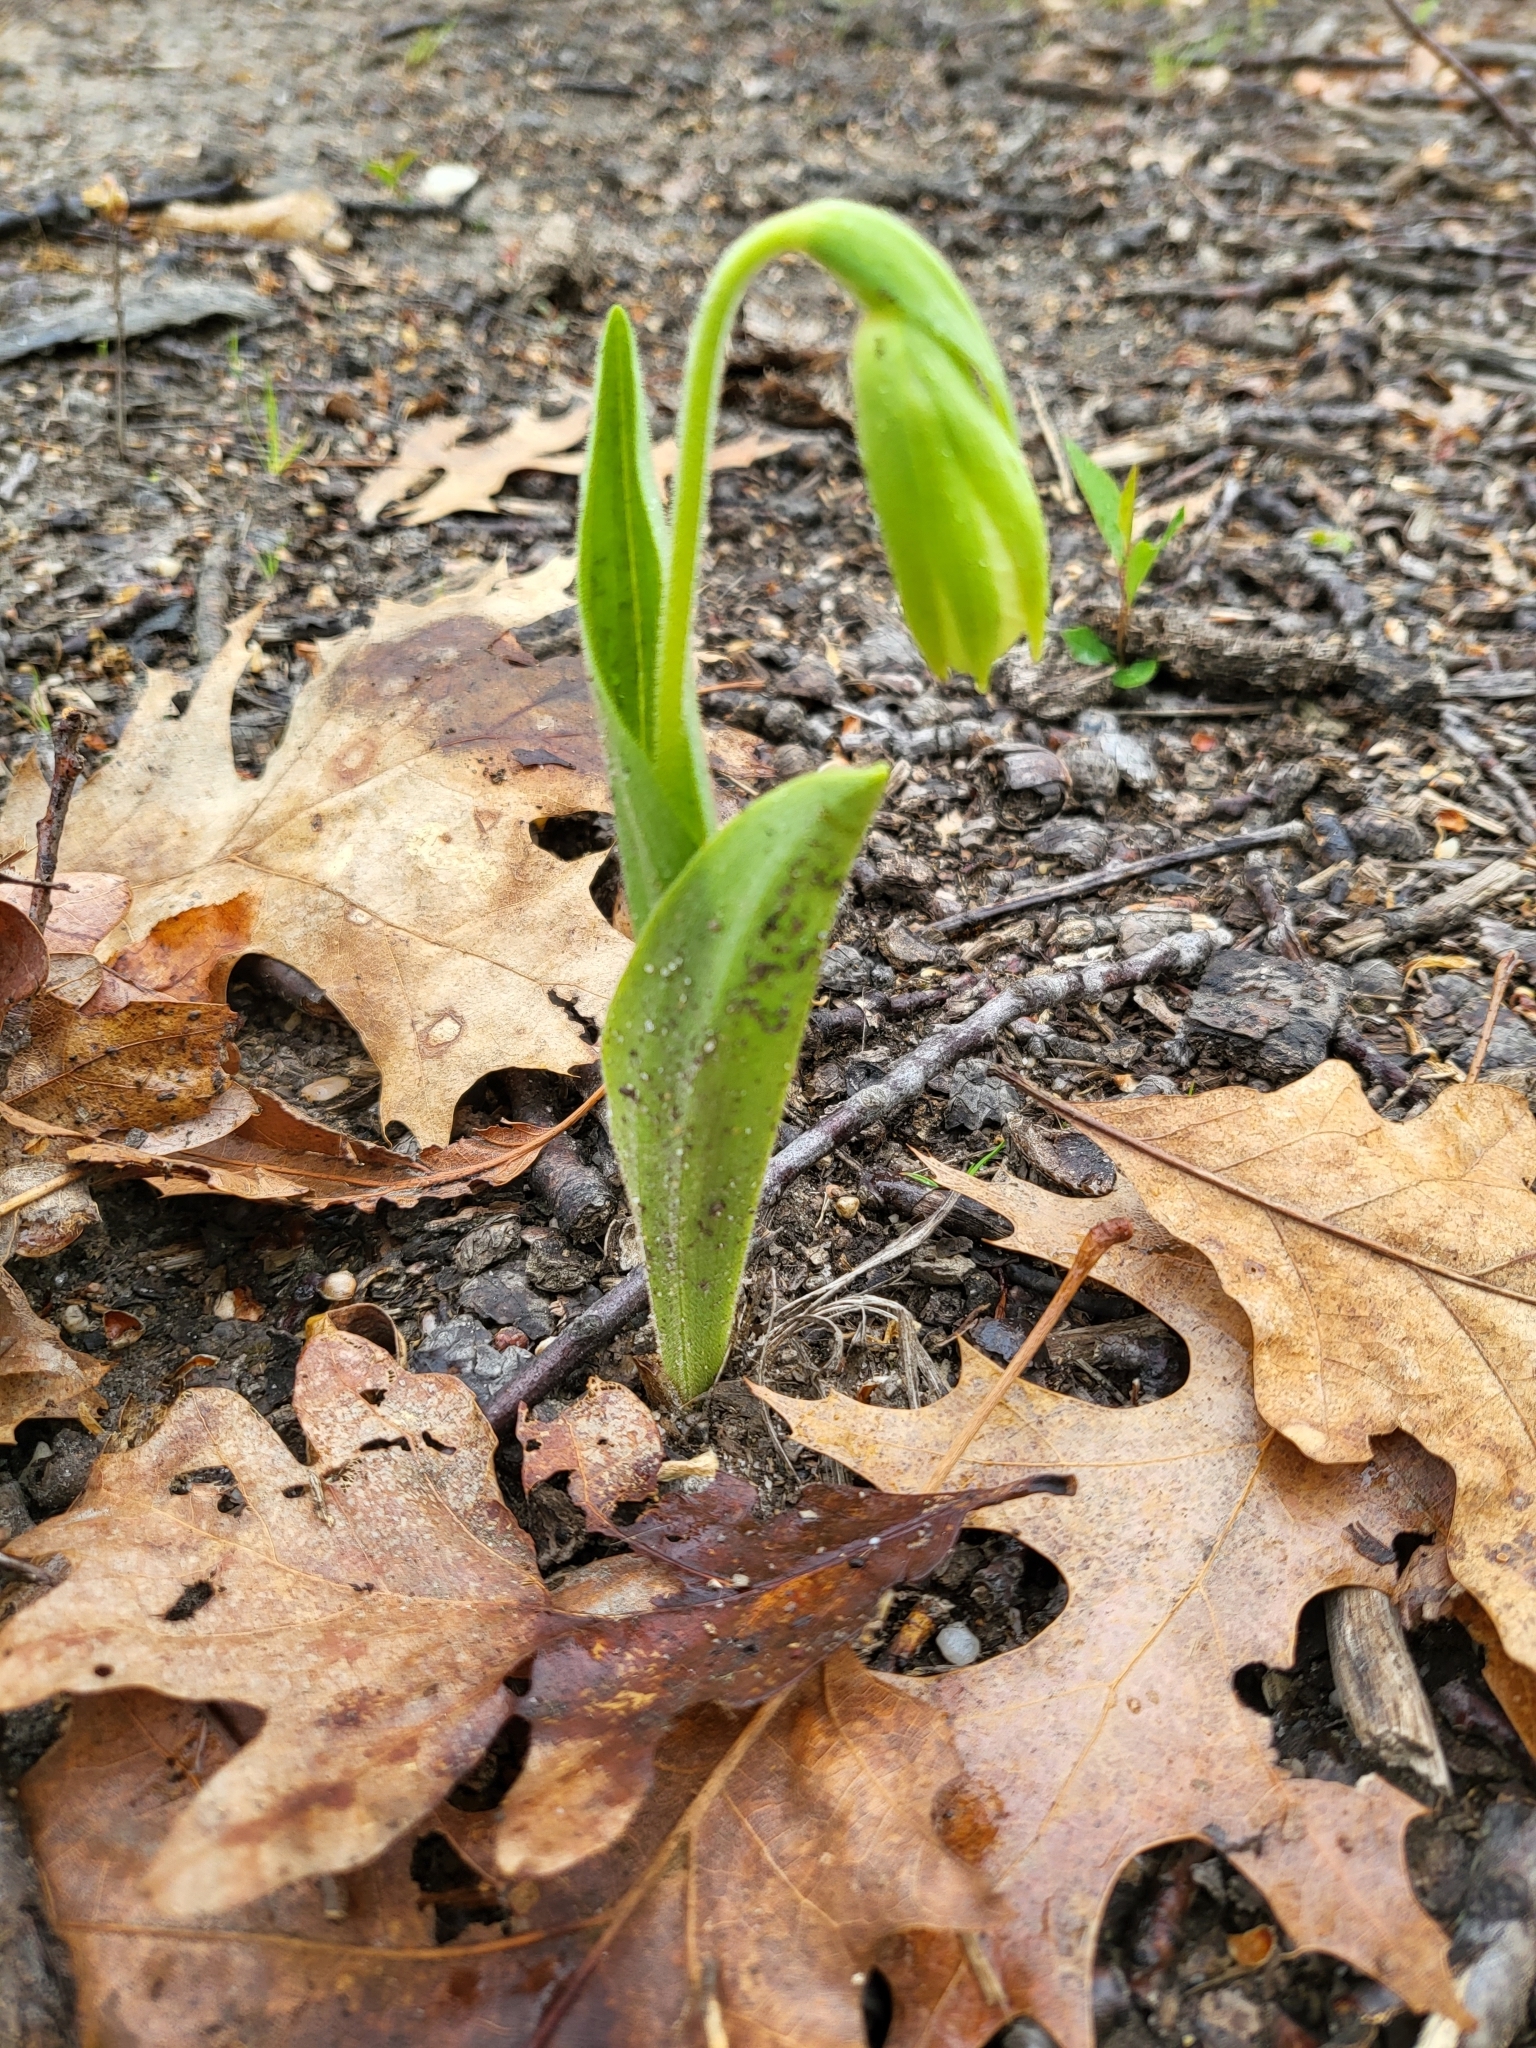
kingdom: Plantae
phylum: Tracheophyta
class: Liliopsida
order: Asparagales
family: Orchidaceae
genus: Cypripedium
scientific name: Cypripedium acaule
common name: Pink lady's-slipper
